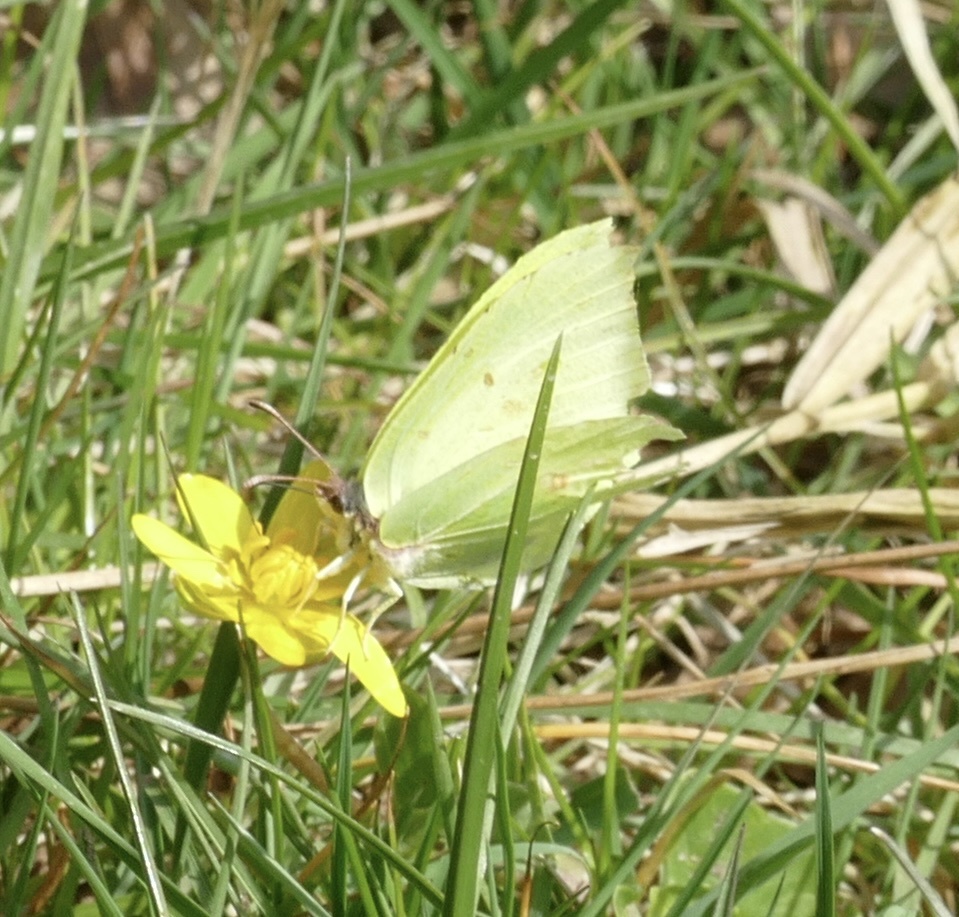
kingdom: Animalia
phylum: Arthropoda
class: Insecta
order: Lepidoptera
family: Pieridae
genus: Gonepteryx
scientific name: Gonepteryx rhamni
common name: Brimstone
